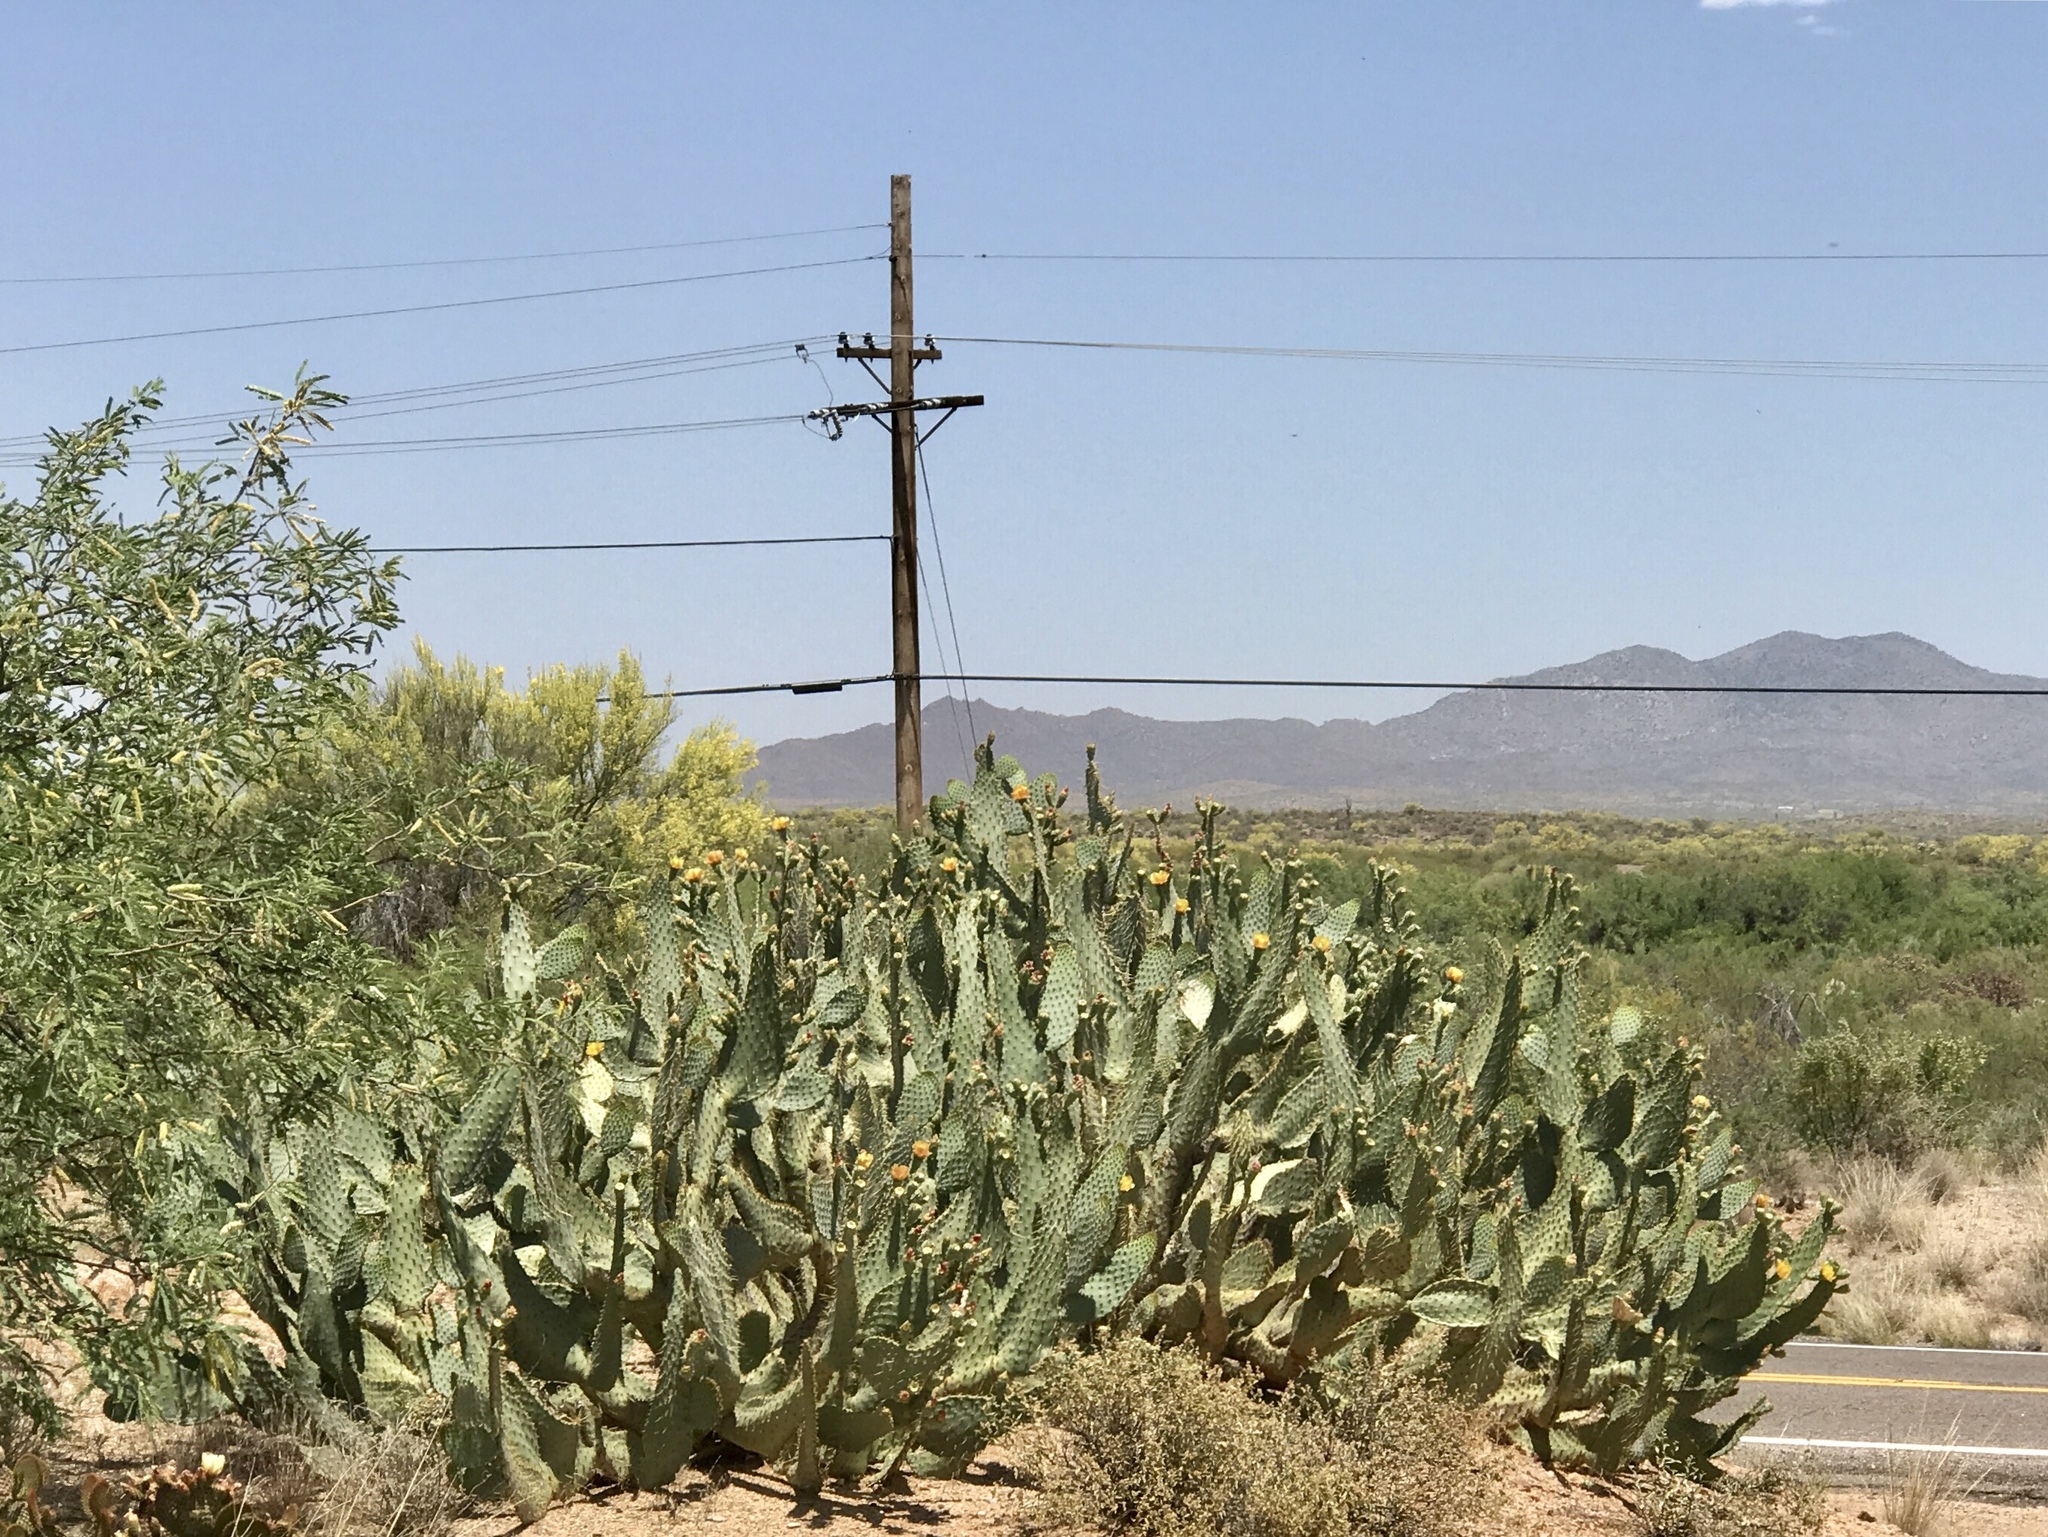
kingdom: Plantae
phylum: Tracheophyta
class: Magnoliopsida
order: Caryophyllales
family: Cactaceae
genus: Opuntia
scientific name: Opuntia engelmannii
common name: Cactus-apple
